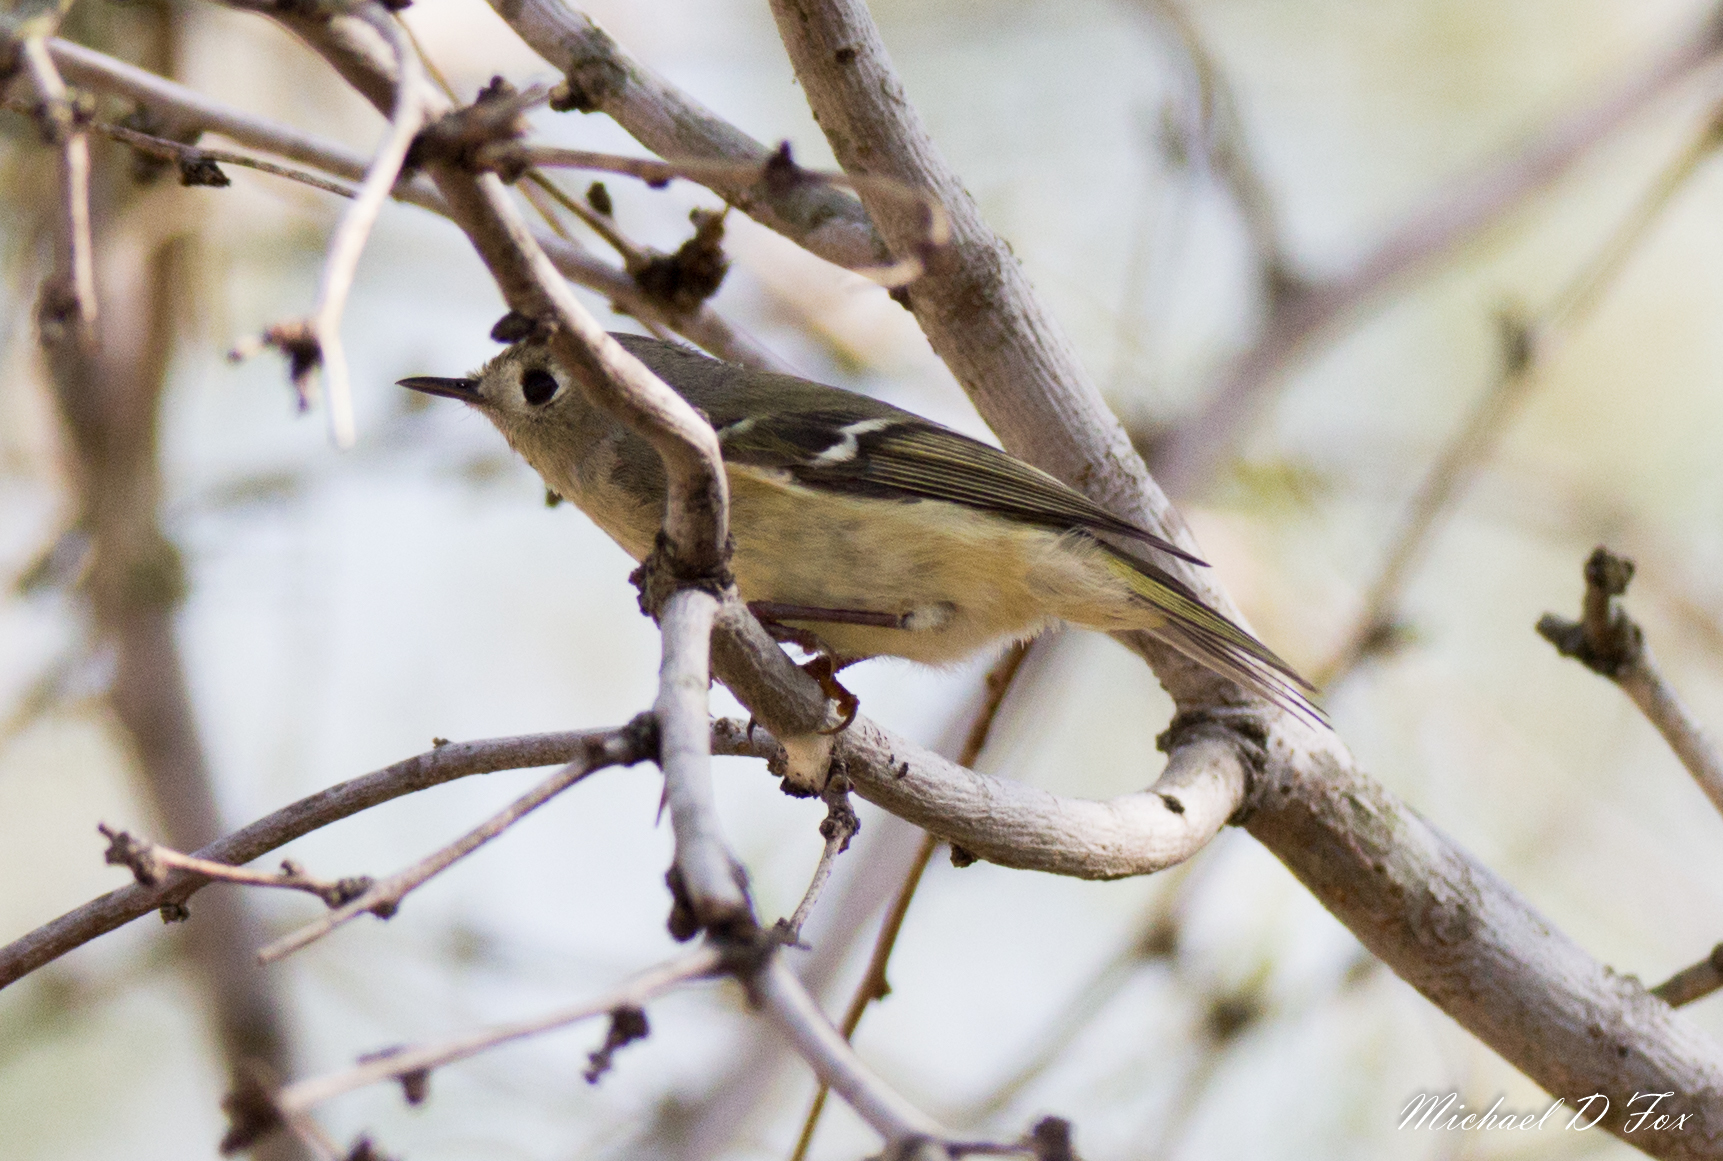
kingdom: Animalia
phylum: Chordata
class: Aves
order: Passeriformes
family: Regulidae
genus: Regulus
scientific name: Regulus calendula
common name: Ruby-crowned kinglet
